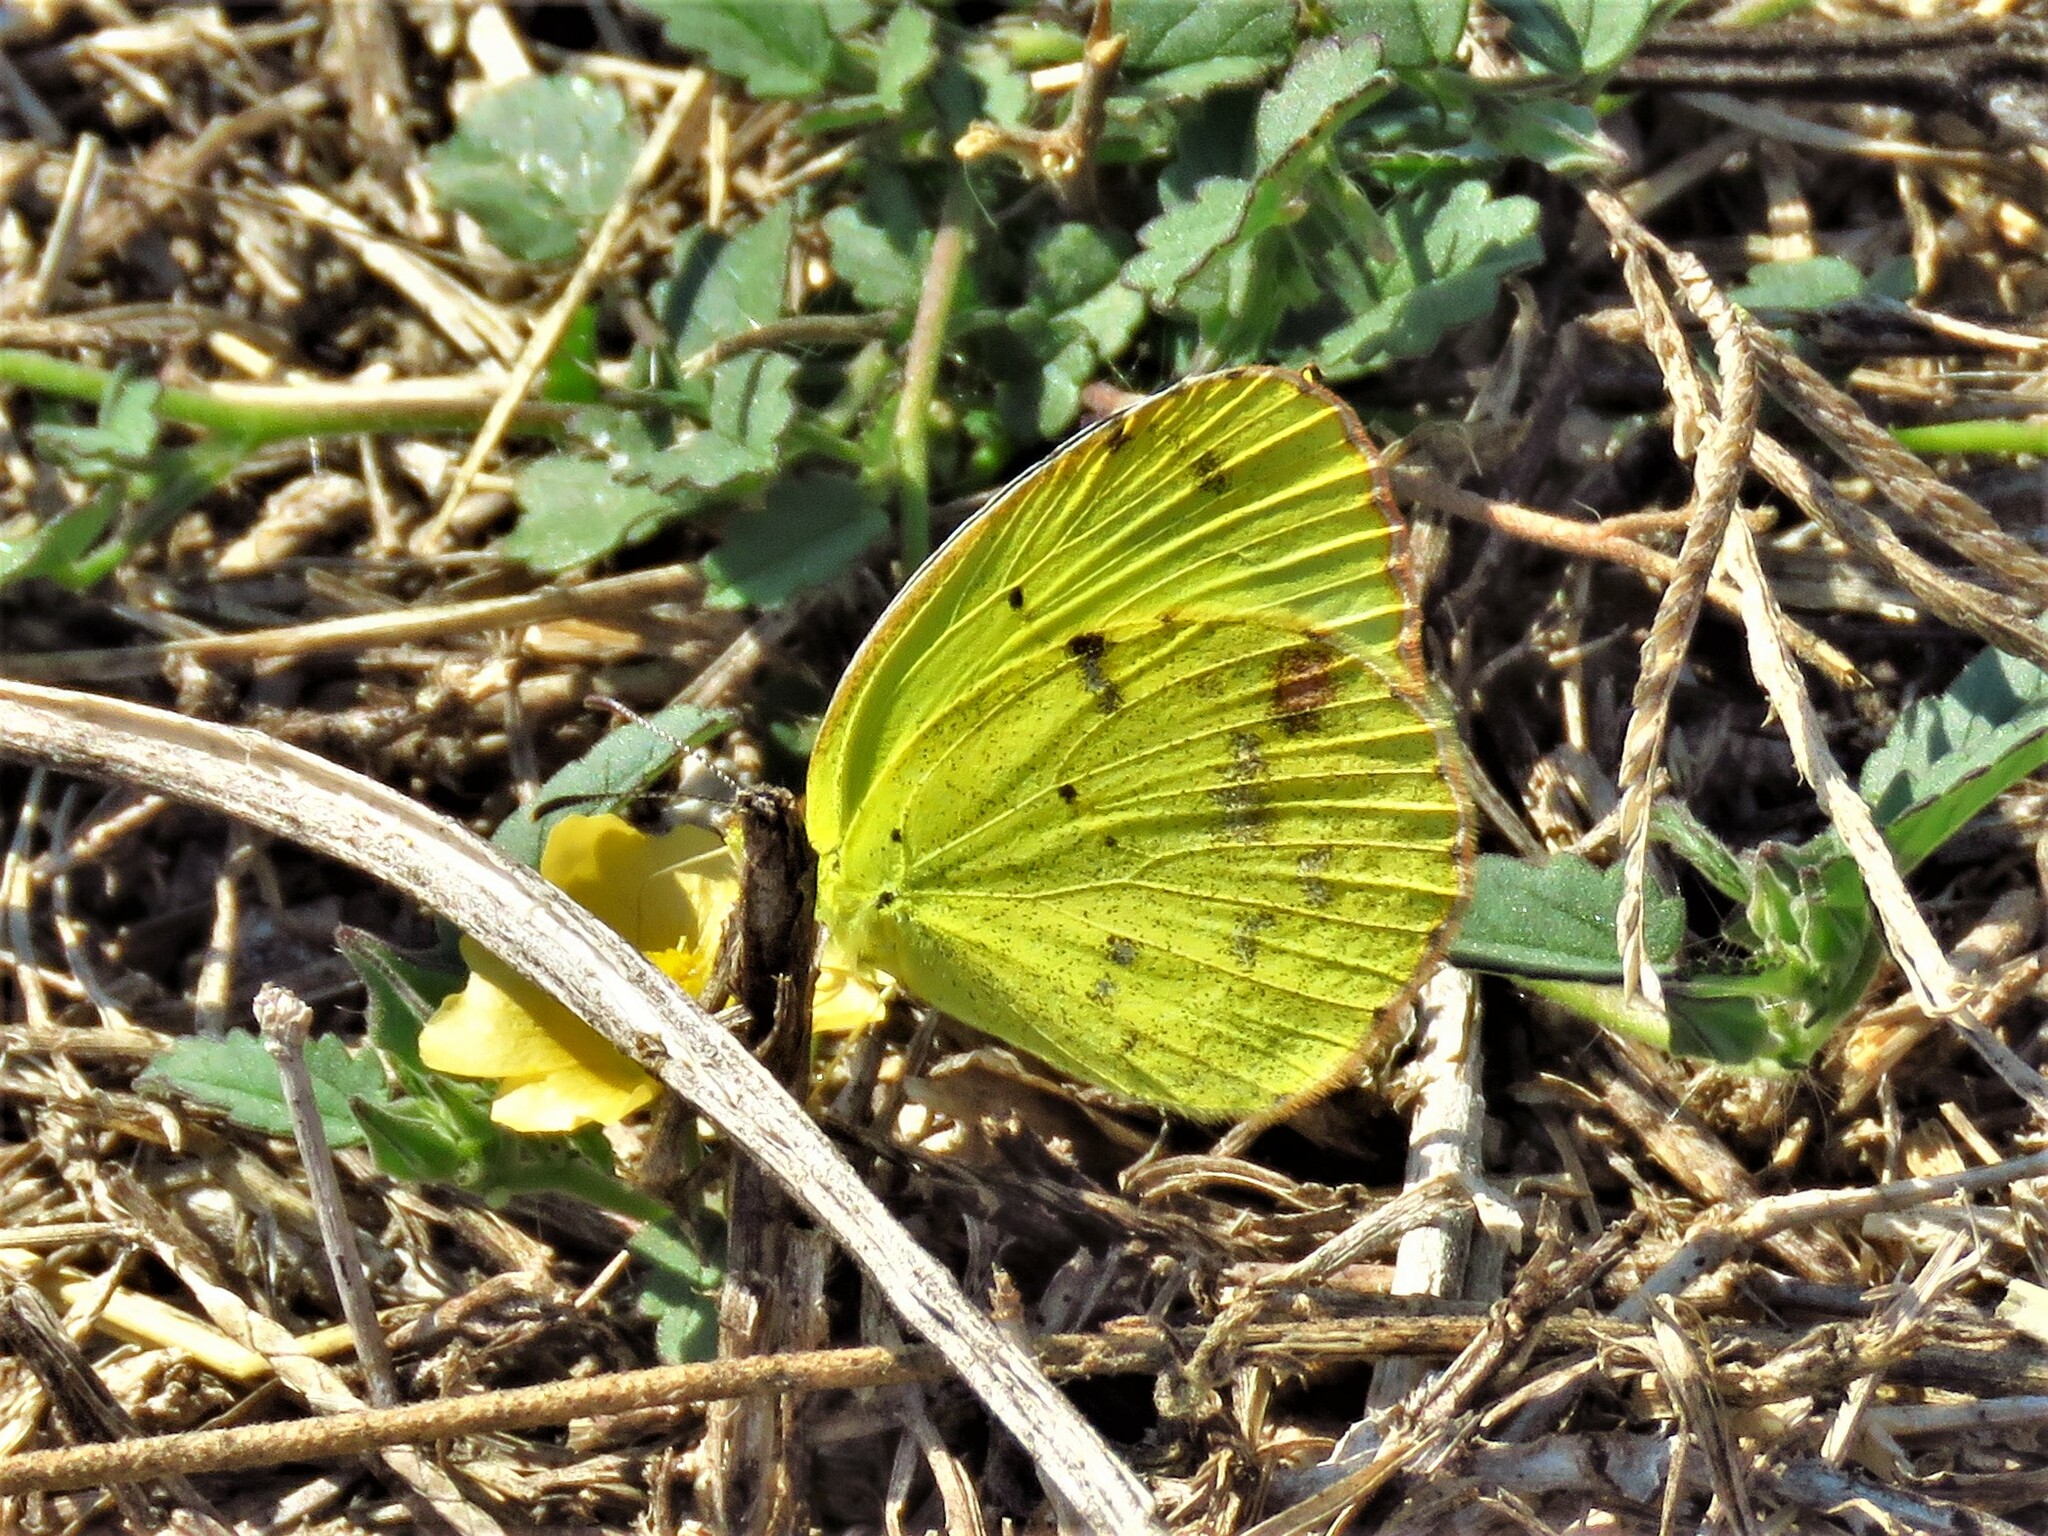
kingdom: Animalia
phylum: Arthropoda
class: Insecta
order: Lepidoptera
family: Pieridae
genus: Pyrisitia
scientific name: Pyrisitia lisa
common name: Little yellow
